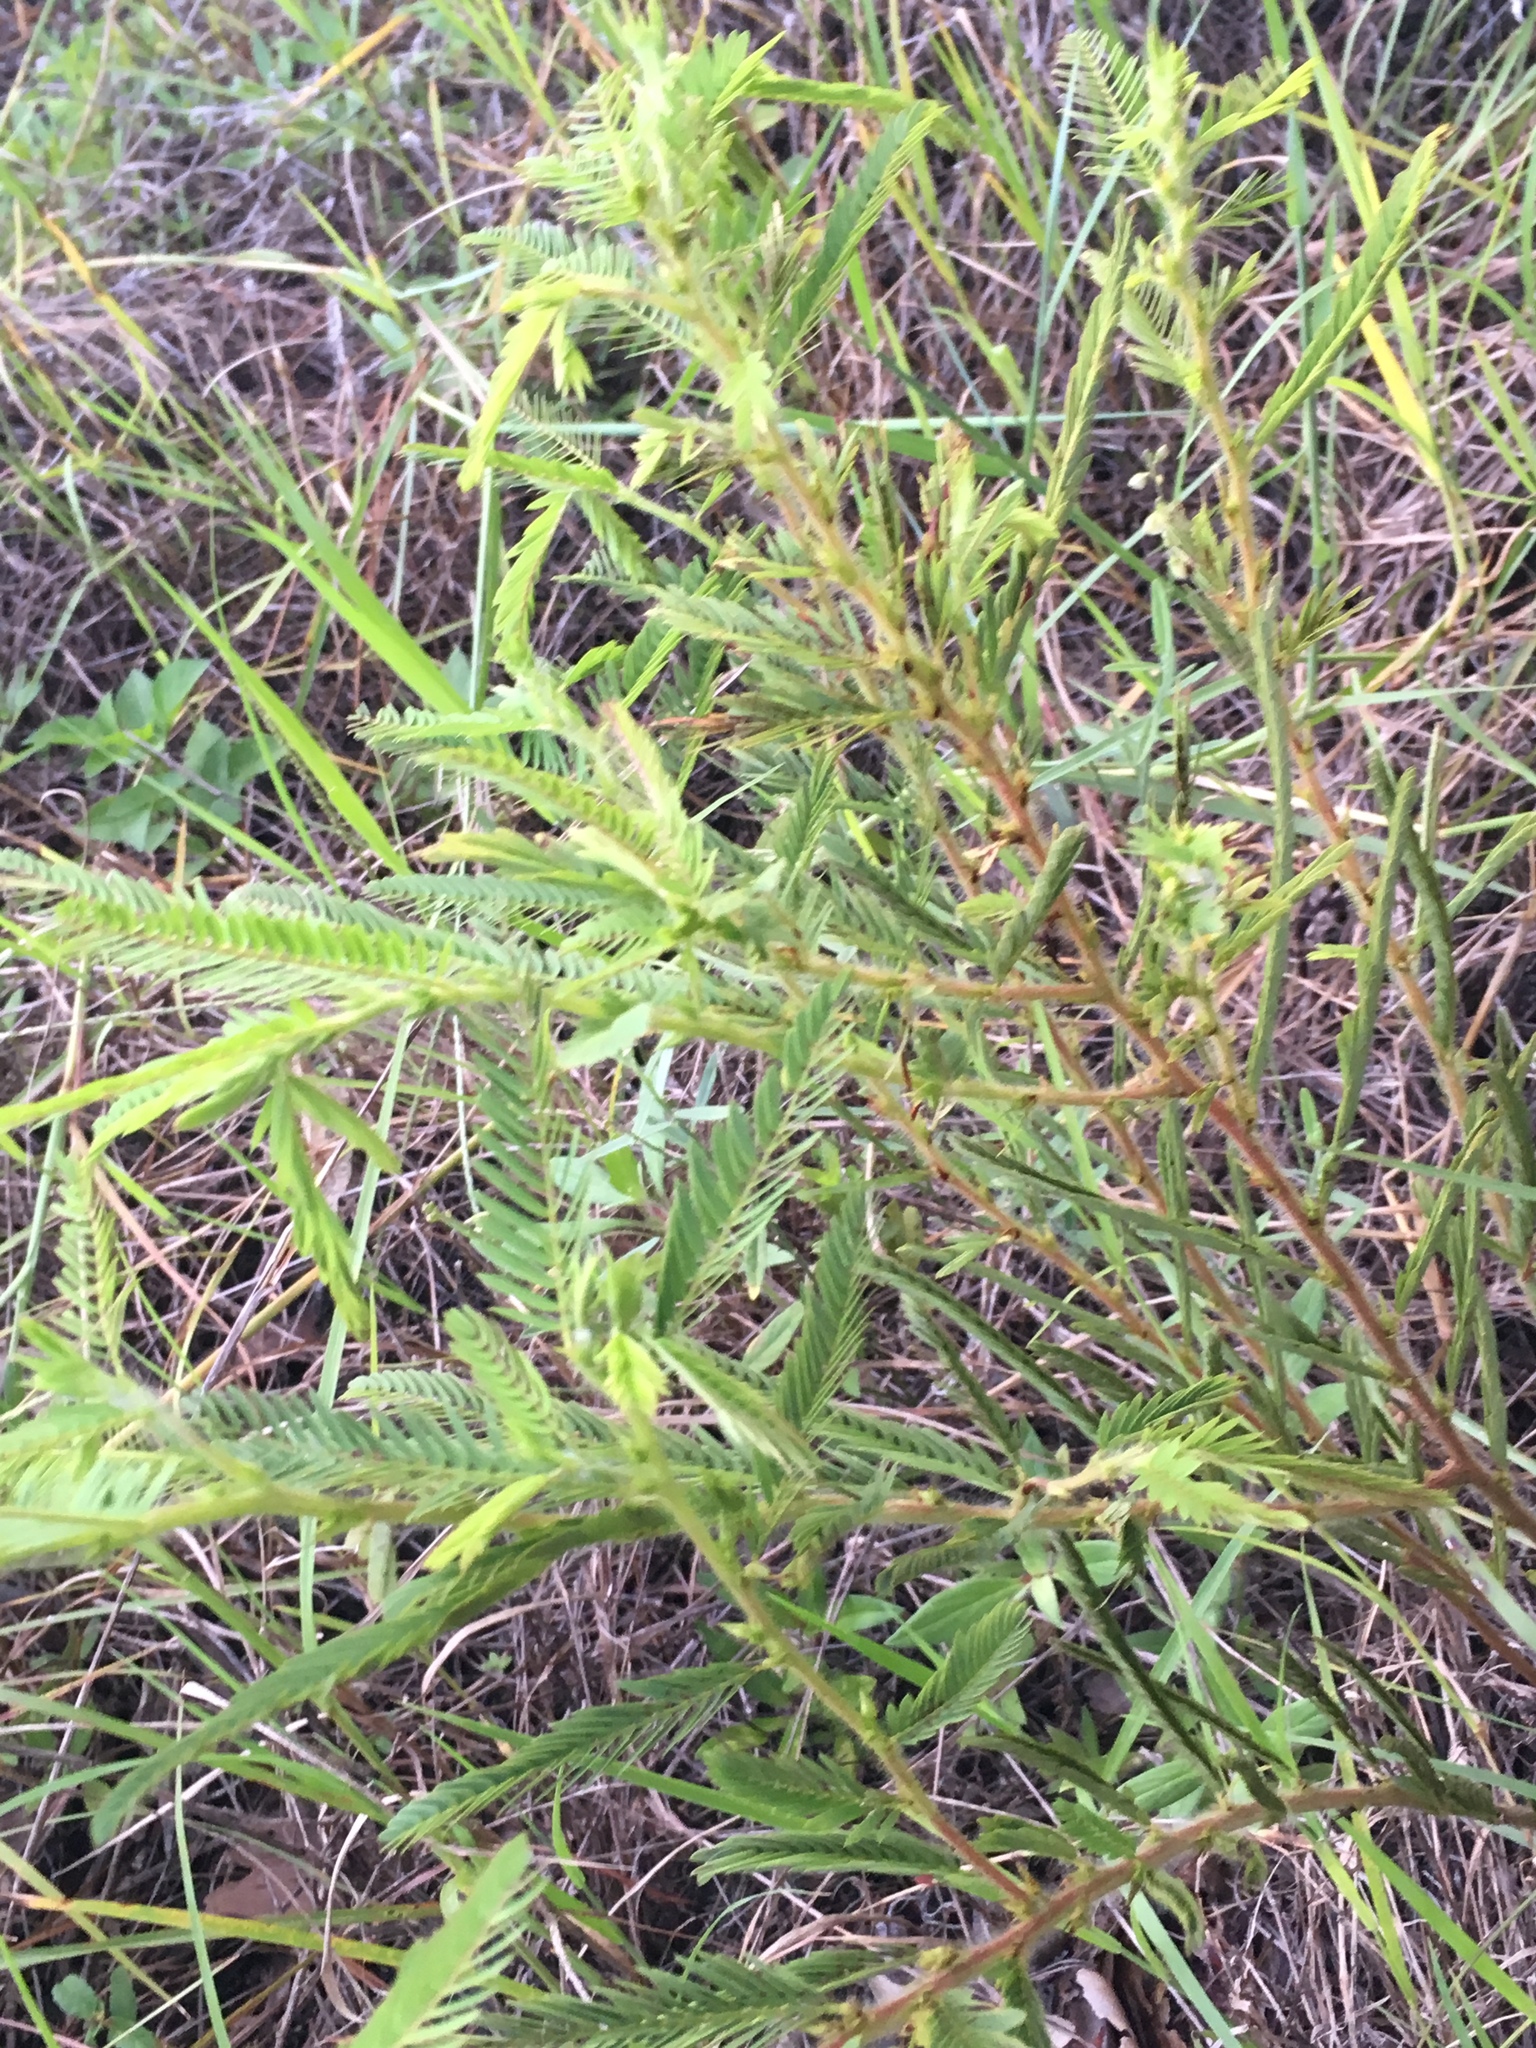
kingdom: Plantae
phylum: Tracheophyta
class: Magnoliopsida
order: Fabales
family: Fabaceae
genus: Chamaecrista
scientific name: Chamaecrista nictitans
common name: Sensitive cassia
